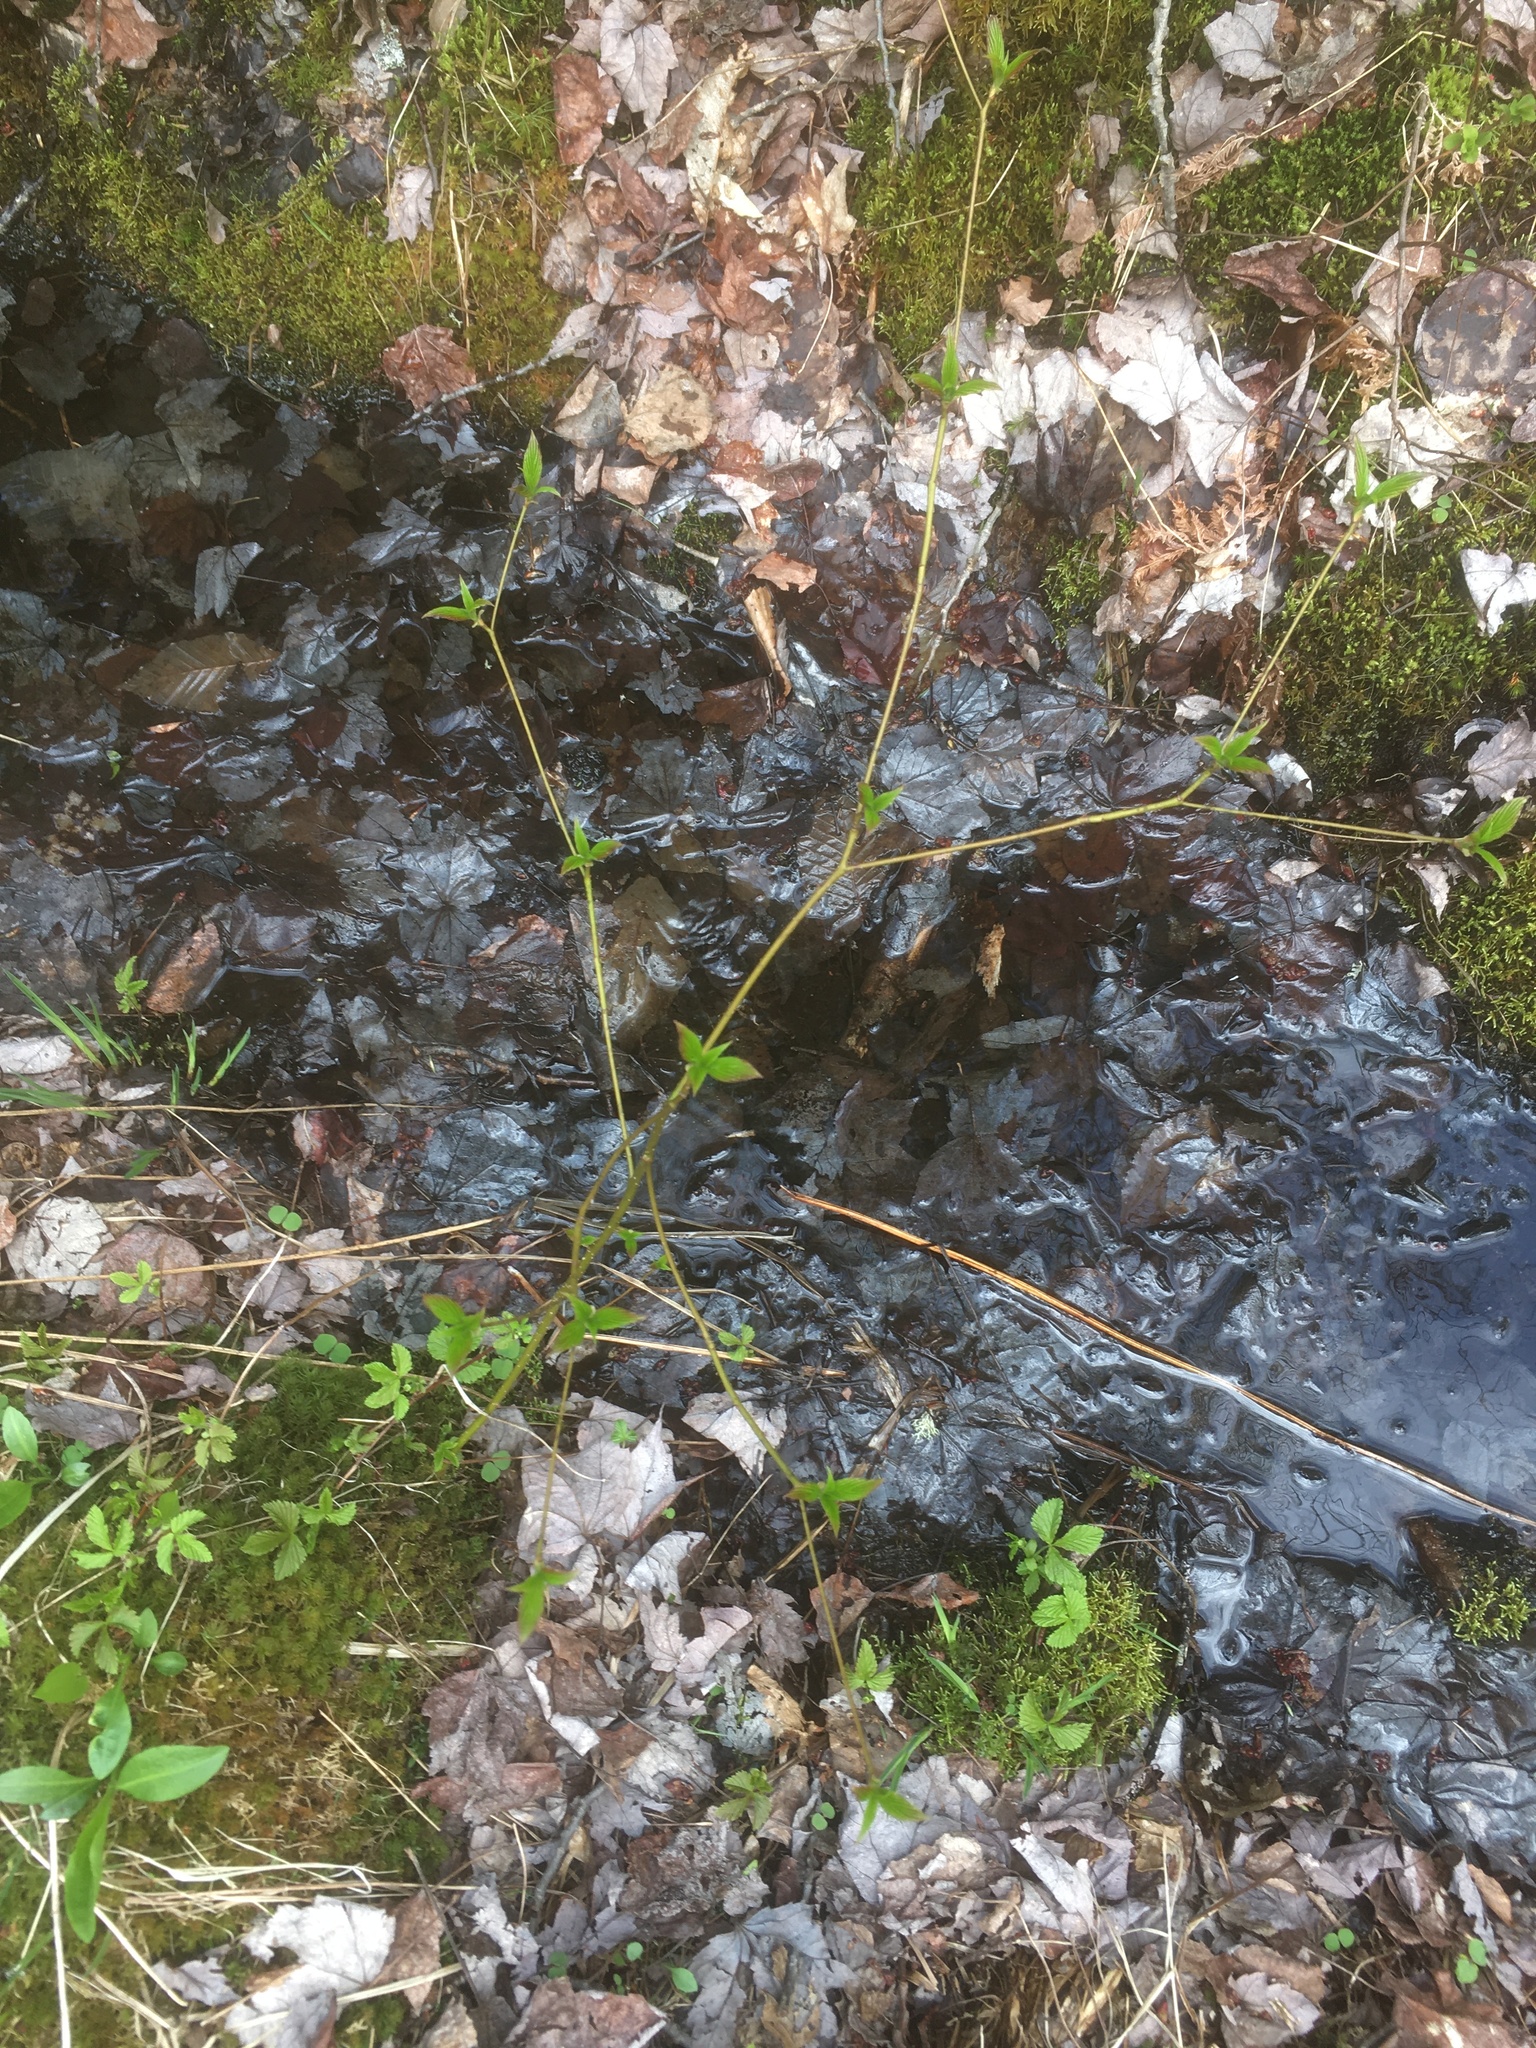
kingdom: Plantae
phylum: Tracheophyta
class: Magnoliopsida
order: Cornales
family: Cornaceae
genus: Cornus
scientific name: Cornus alternifolia
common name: Pagoda dogwood
